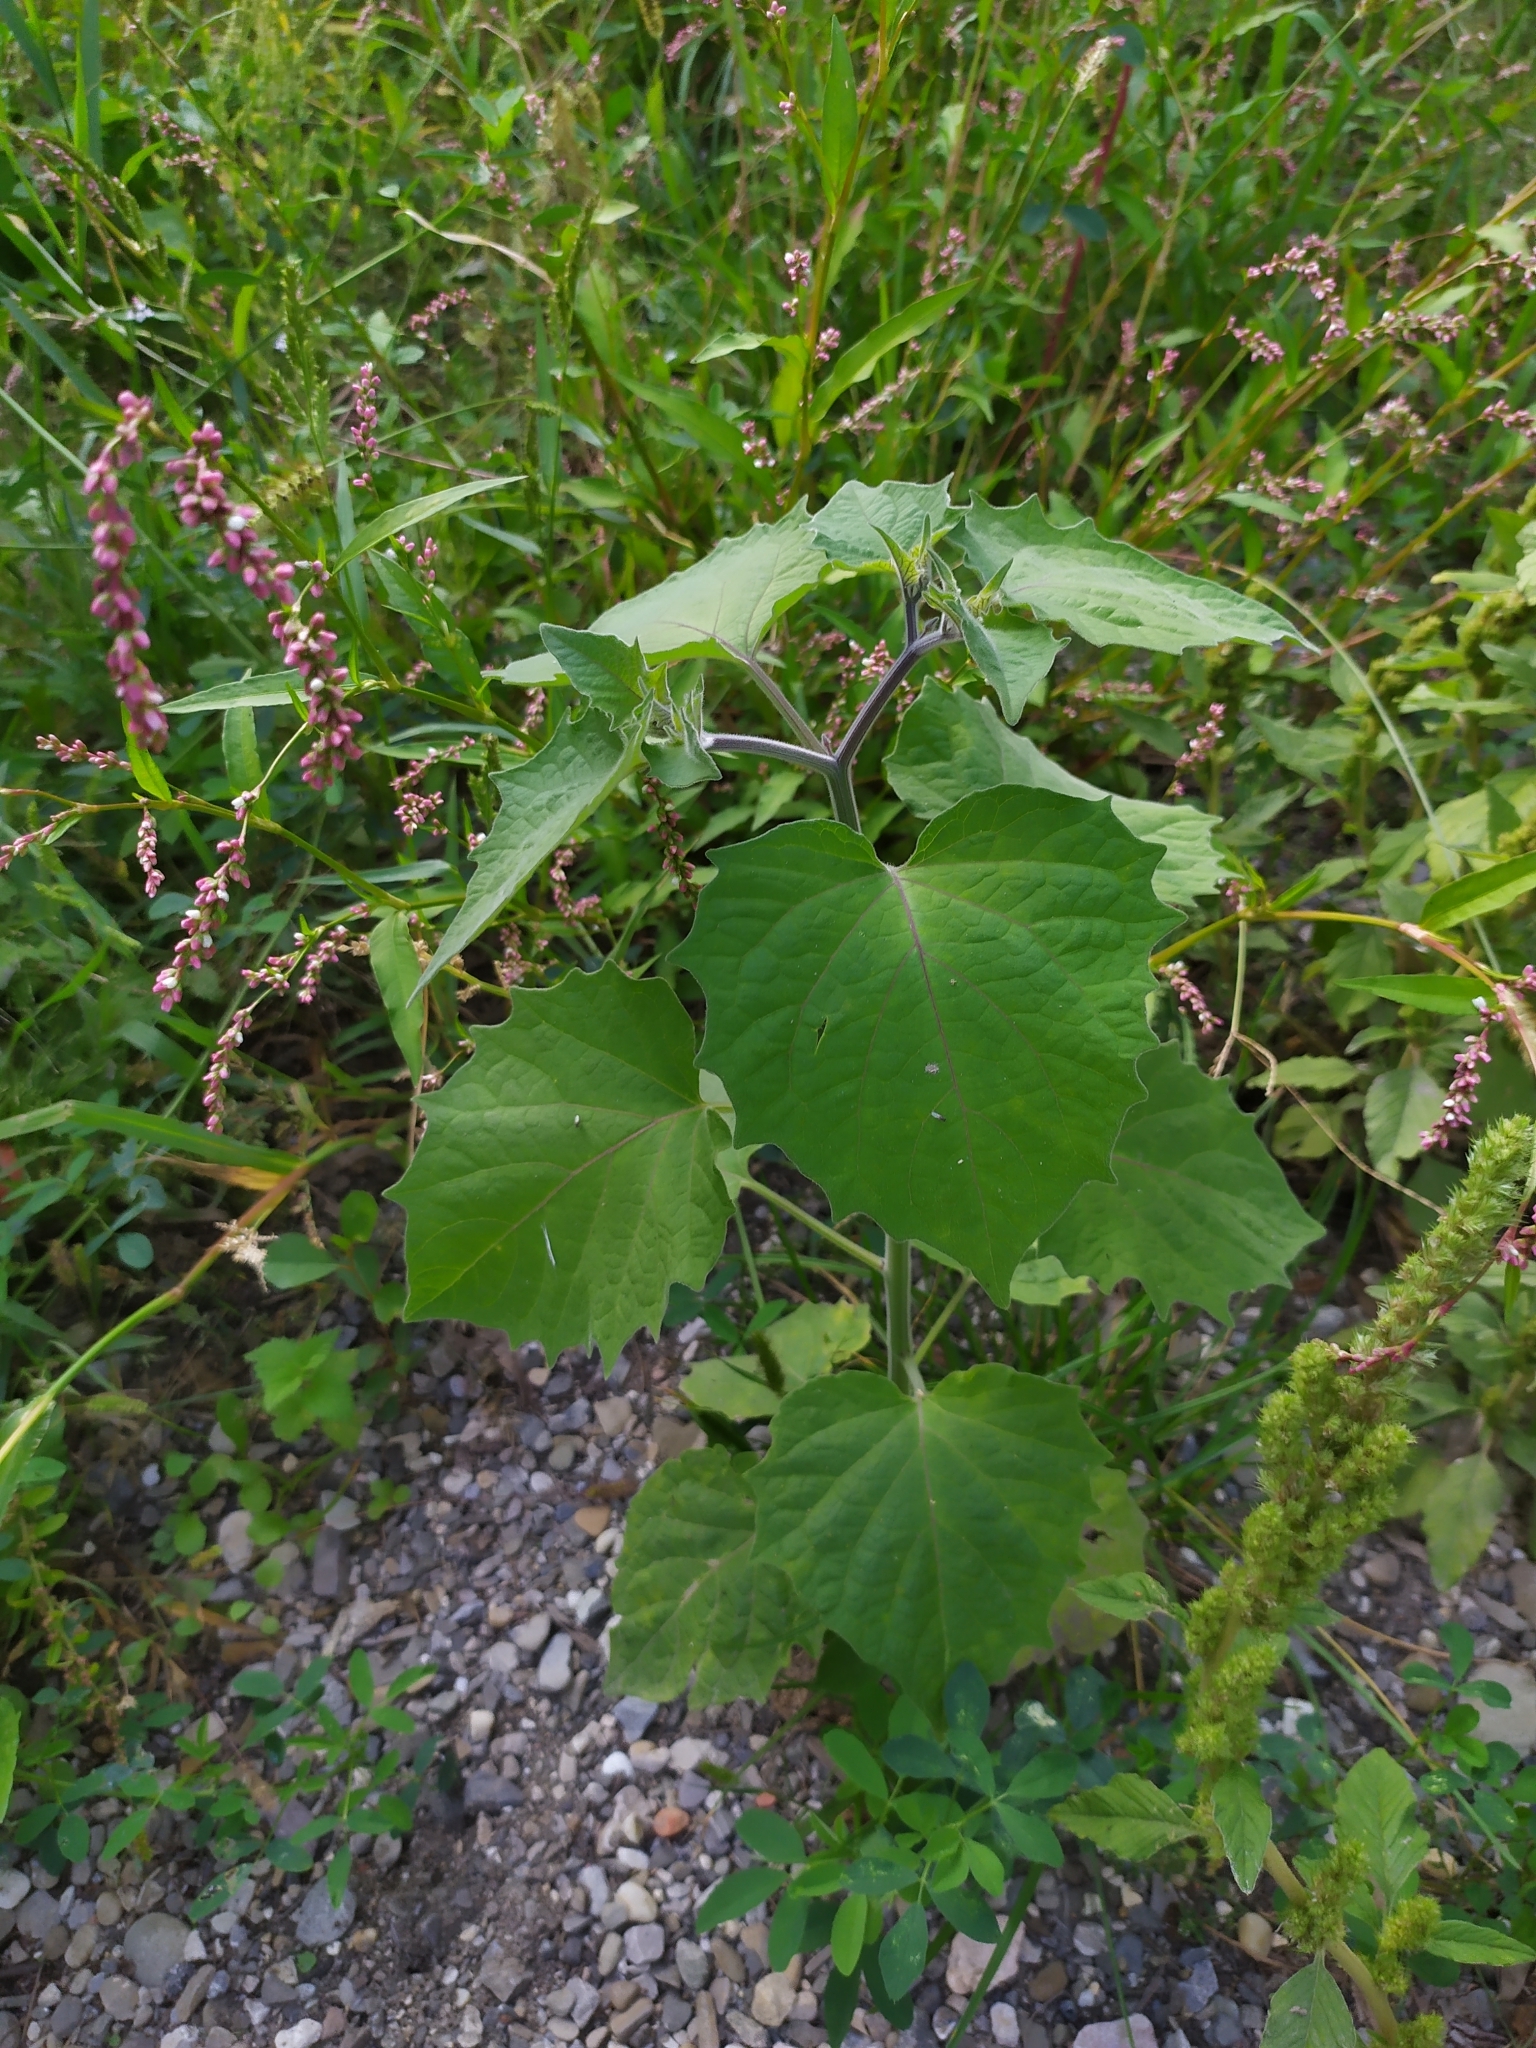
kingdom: Plantae
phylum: Tracheophyta
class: Magnoliopsida
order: Solanales
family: Solanaceae
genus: Physalis
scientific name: Physalis peruviana
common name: Cape-gooseberry
